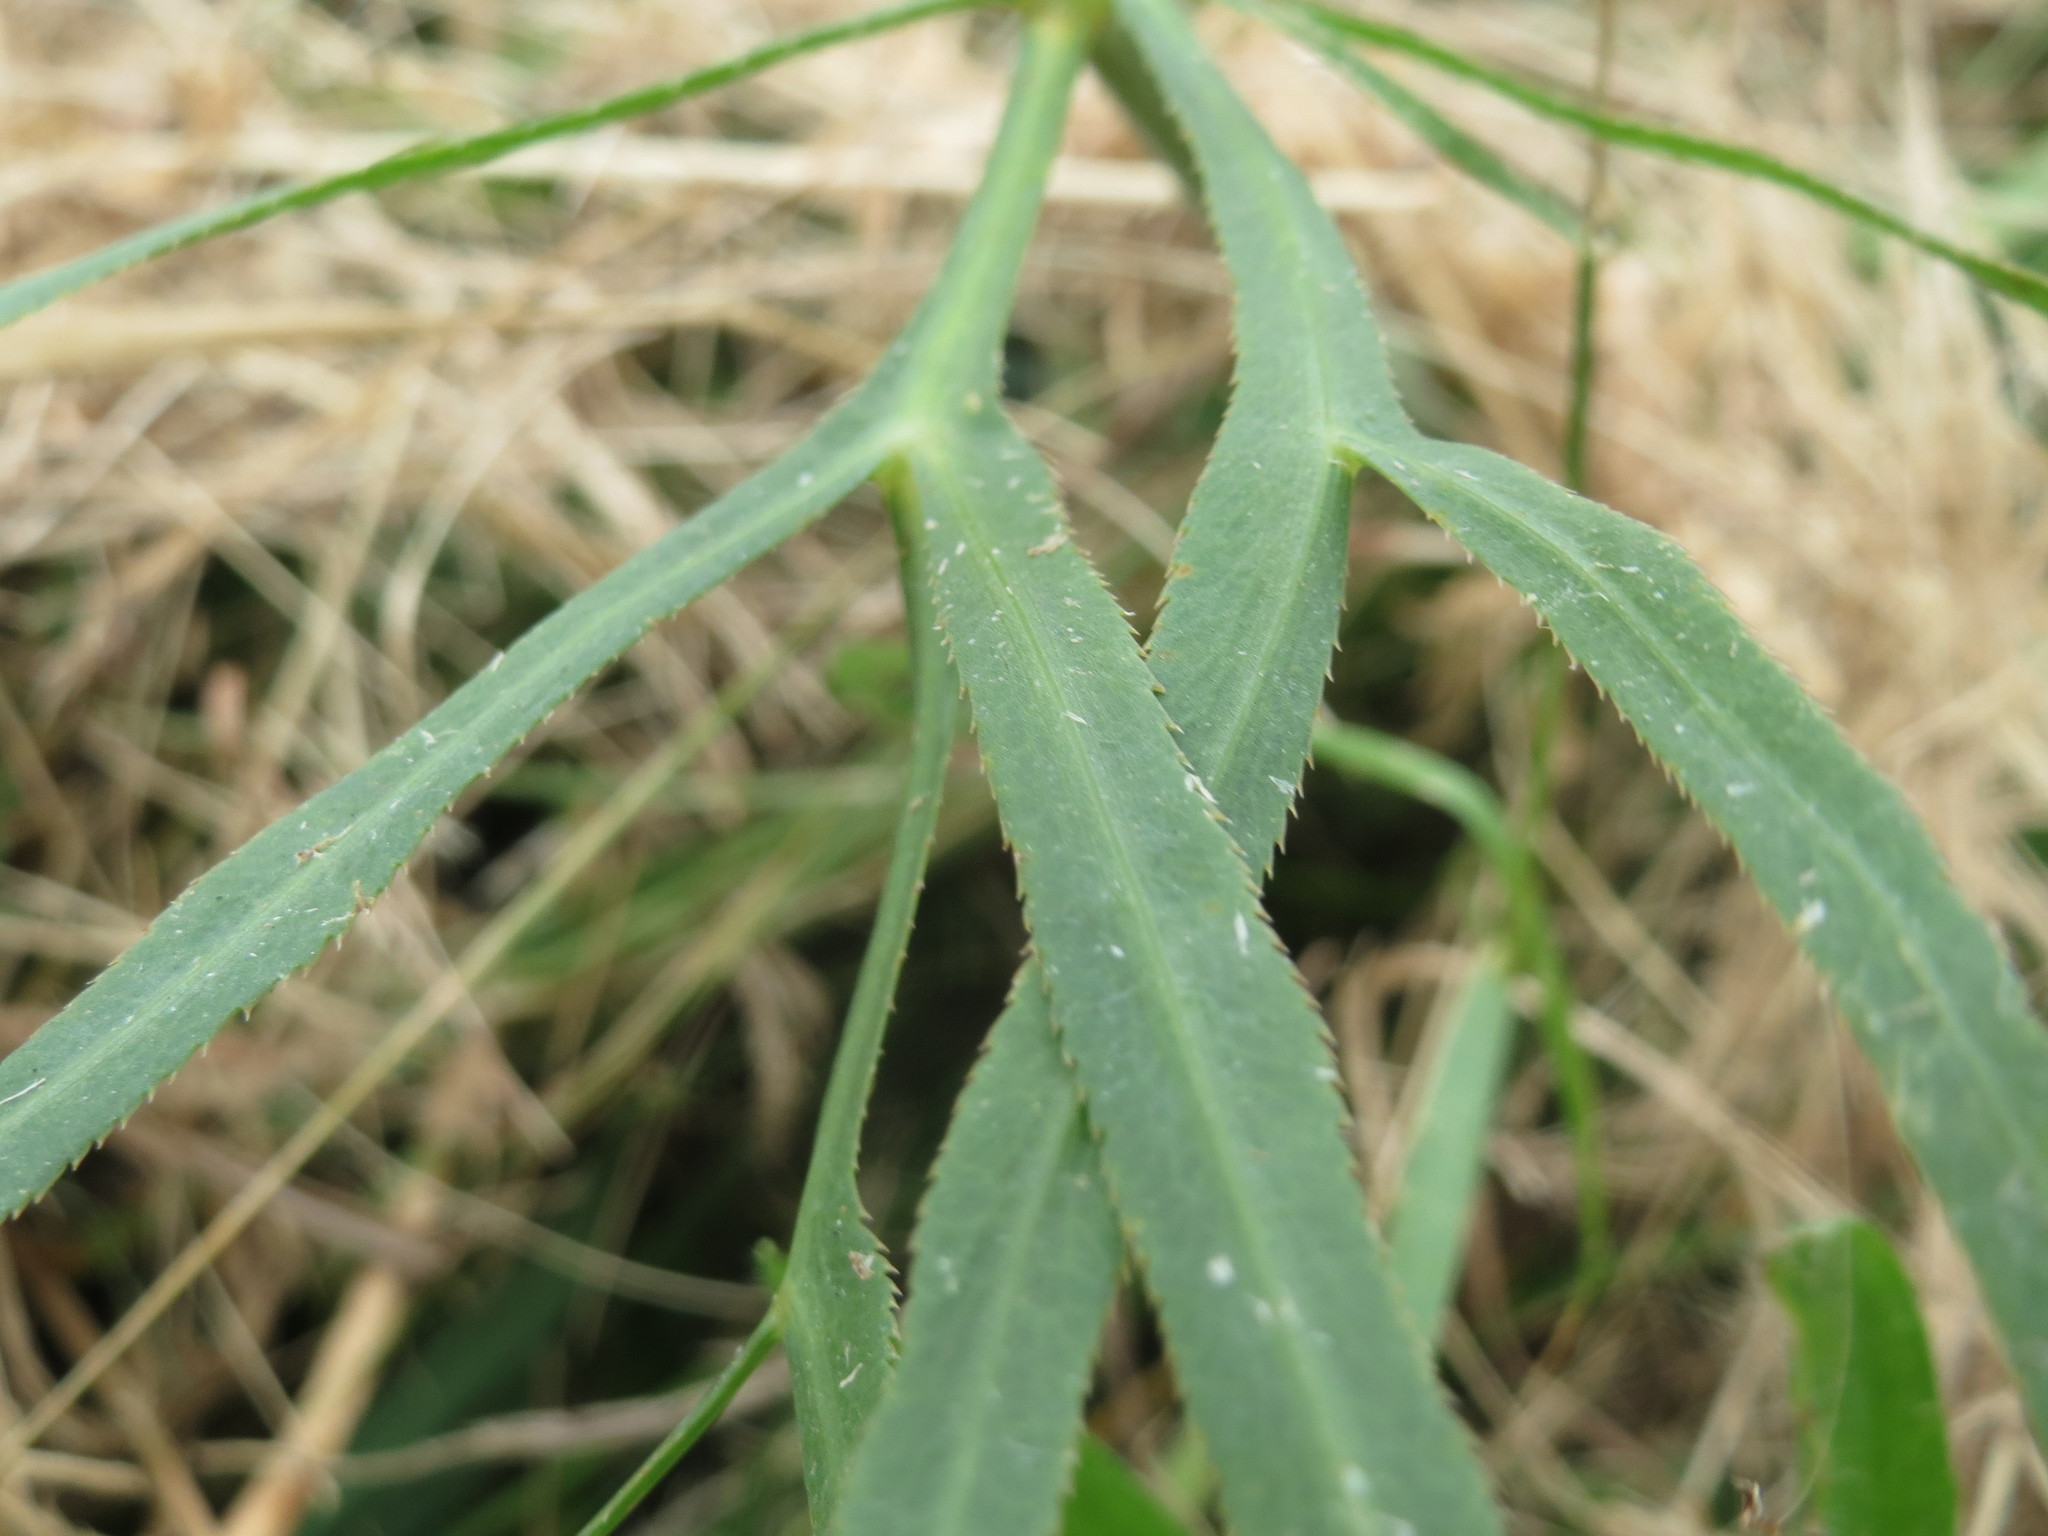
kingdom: Plantae
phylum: Tracheophyta
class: Magnoliopsida
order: Apiales
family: Apiaceae
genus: Falcaria
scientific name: Falcaria vulgaris
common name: Longleaf
